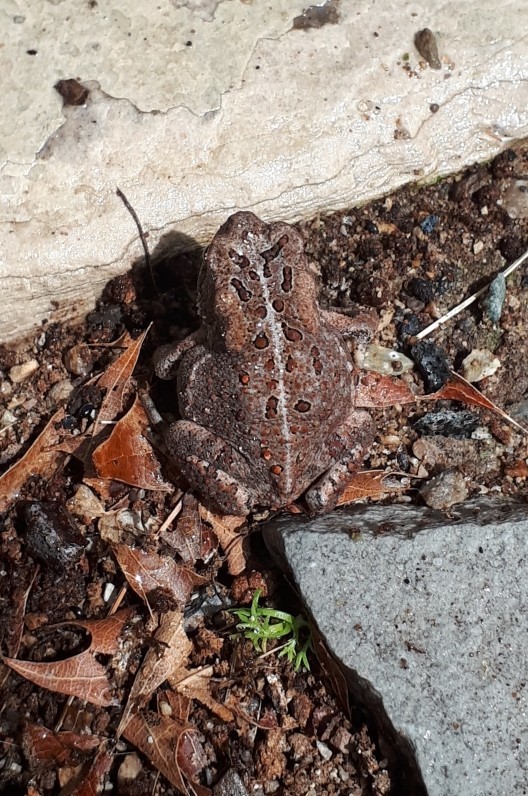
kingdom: Animalia
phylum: Chordata
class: Amphibia
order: Anura
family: Bufonidae
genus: Anaxyrus
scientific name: Anaxyrus americanus
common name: American toad
